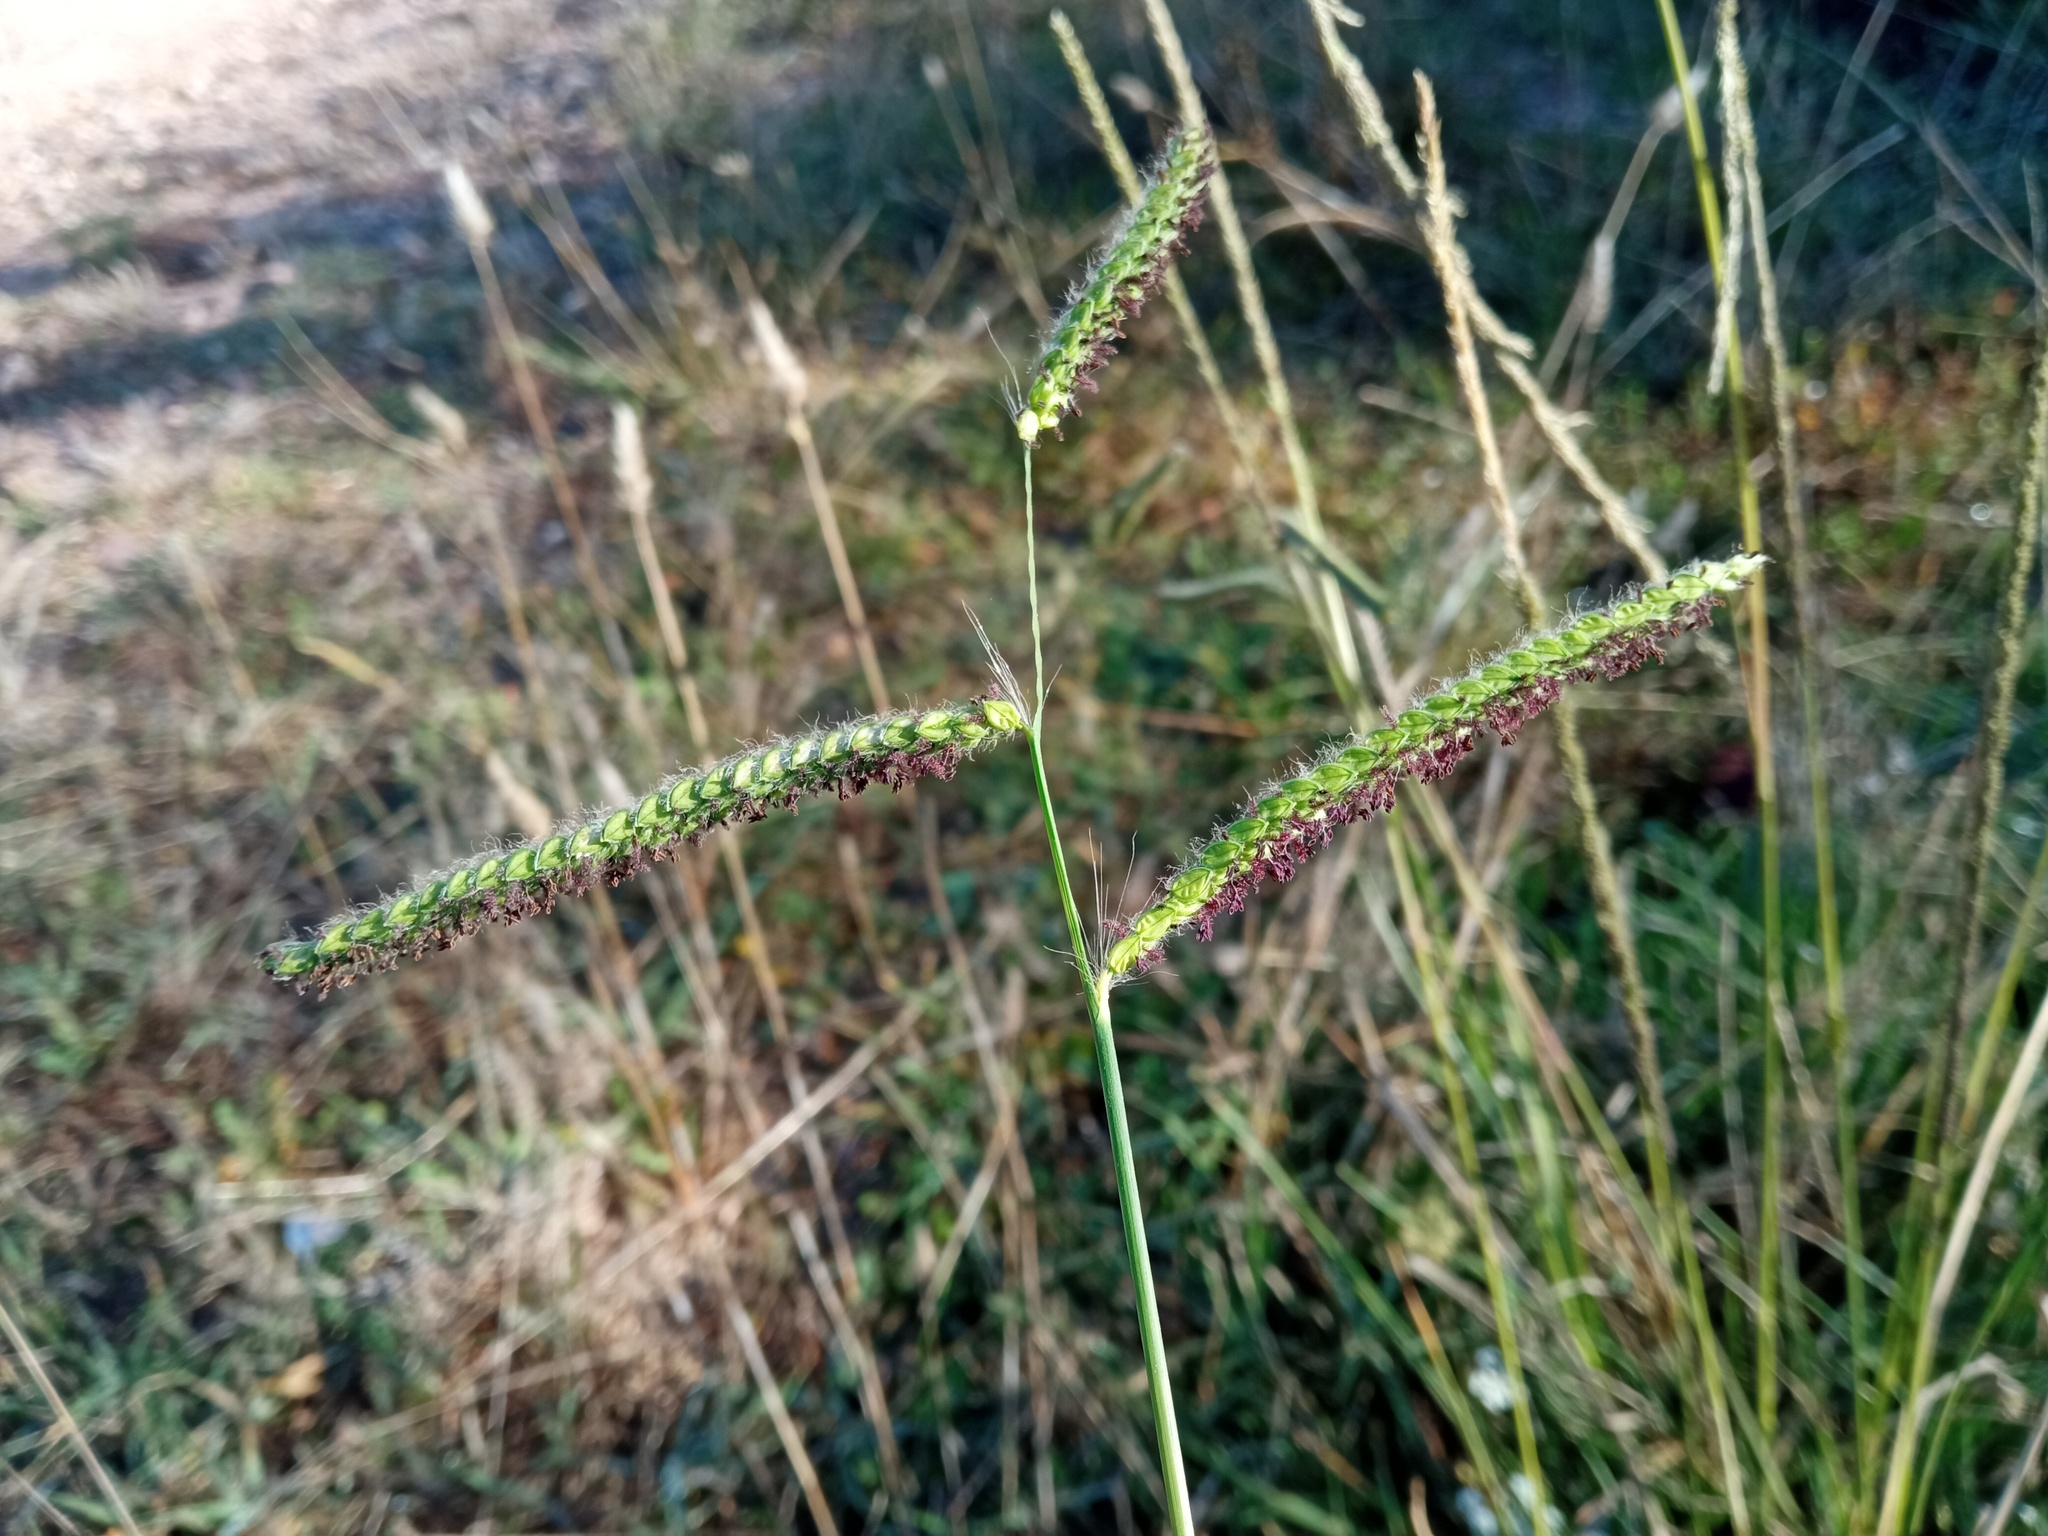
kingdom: Plantae
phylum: Tracheophyta
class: Liliopsida
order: Poales
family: Poaceae
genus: Paspalum
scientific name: Paspalum dilatatum
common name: Dallisgrass
